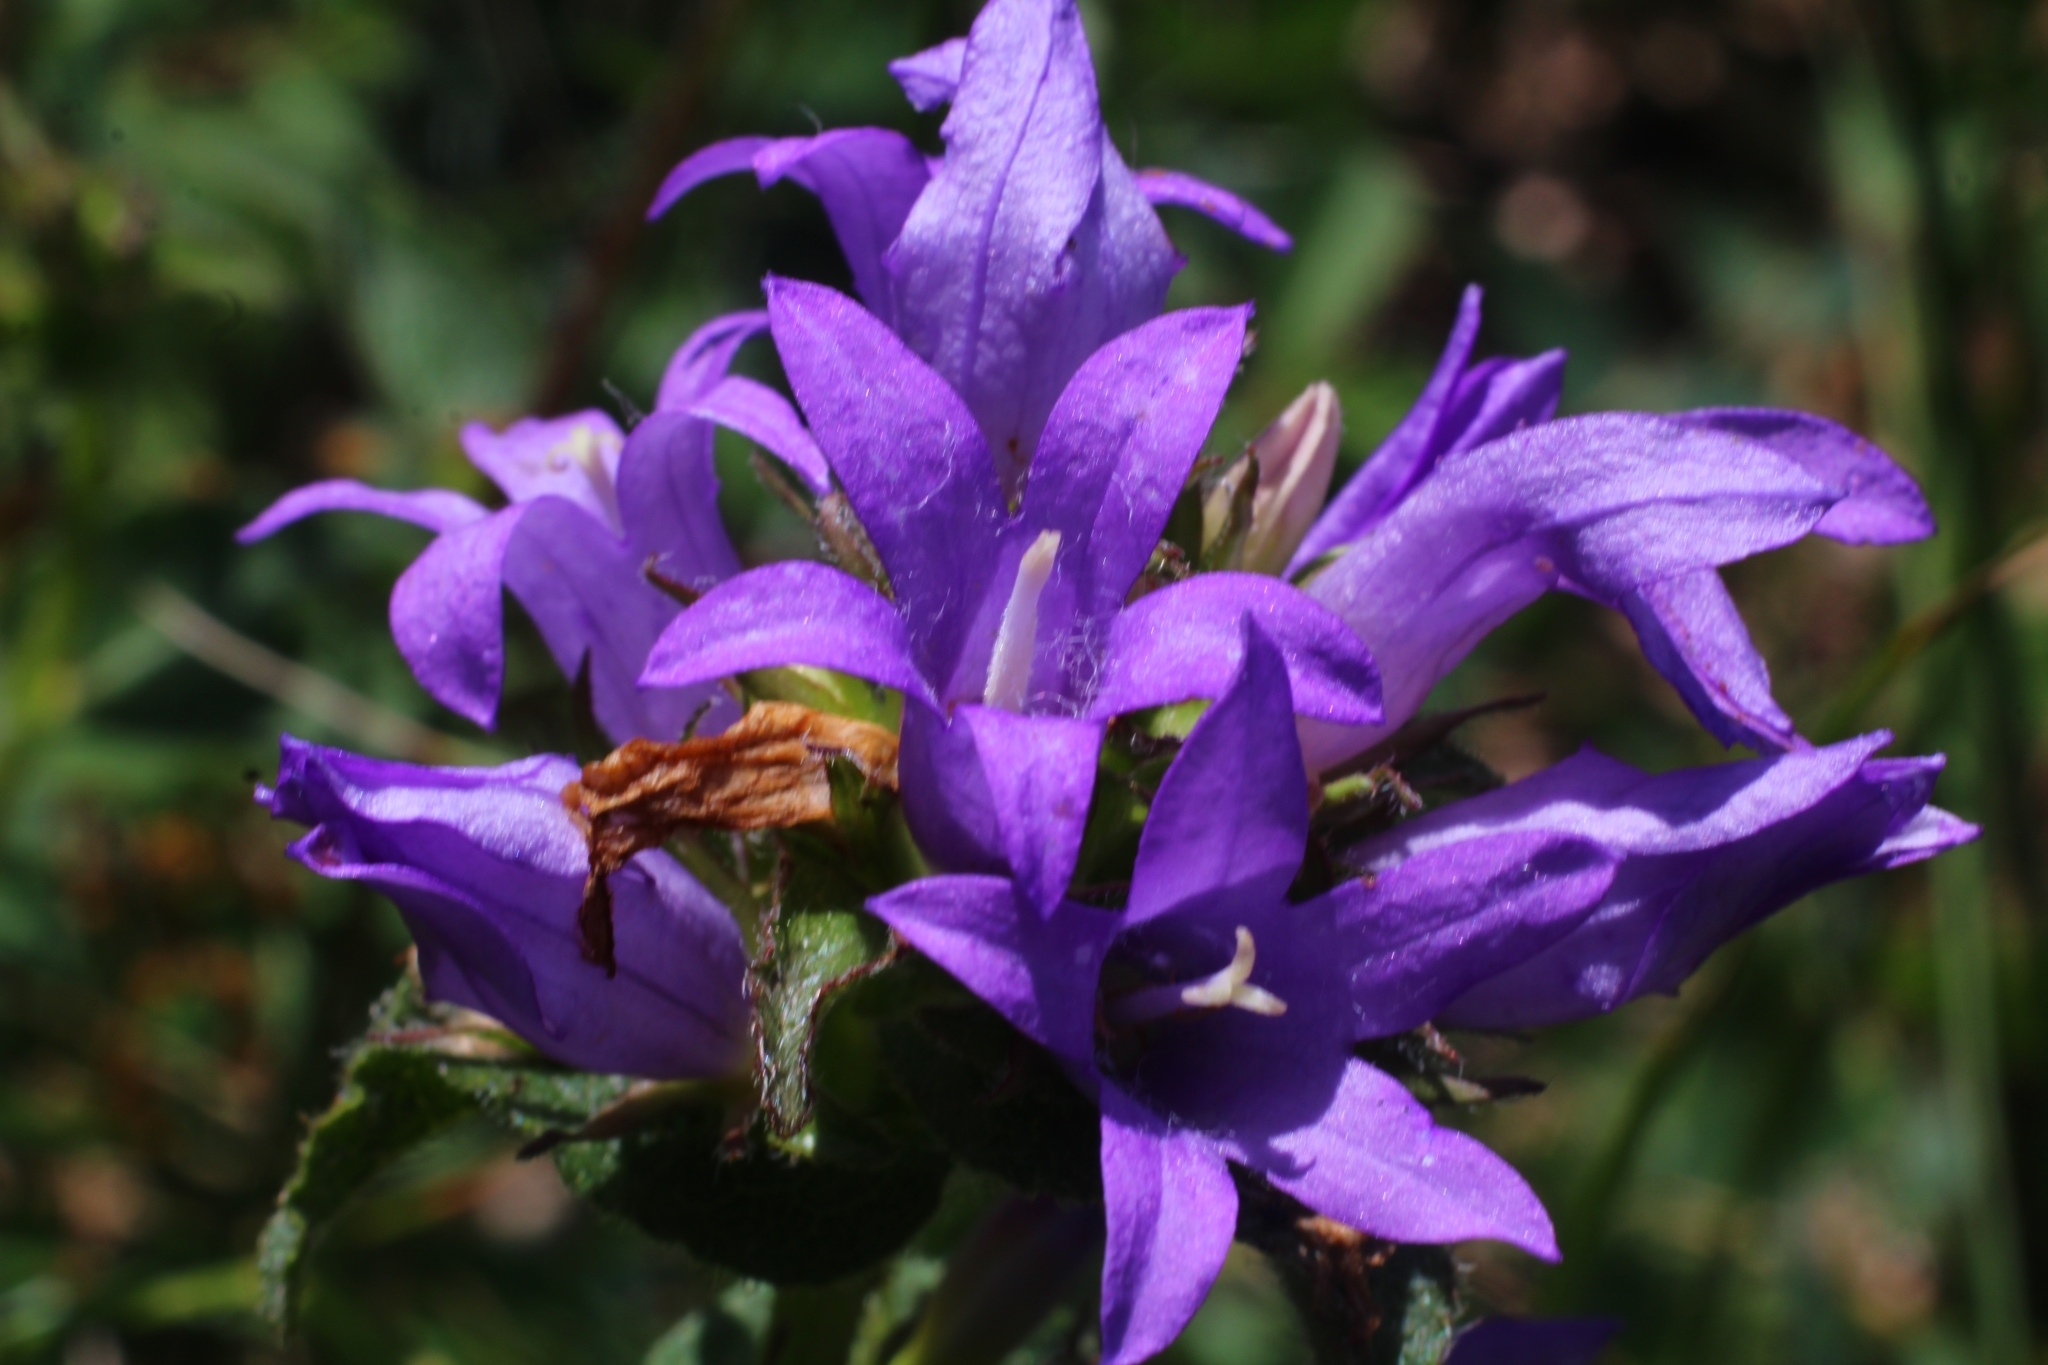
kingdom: Plantae
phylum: Tracheophyta
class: Magnoliopsida
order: Asterales
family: Campanulaceae
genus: Campanula
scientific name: Campanula glomerata
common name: Clustered bellflower
